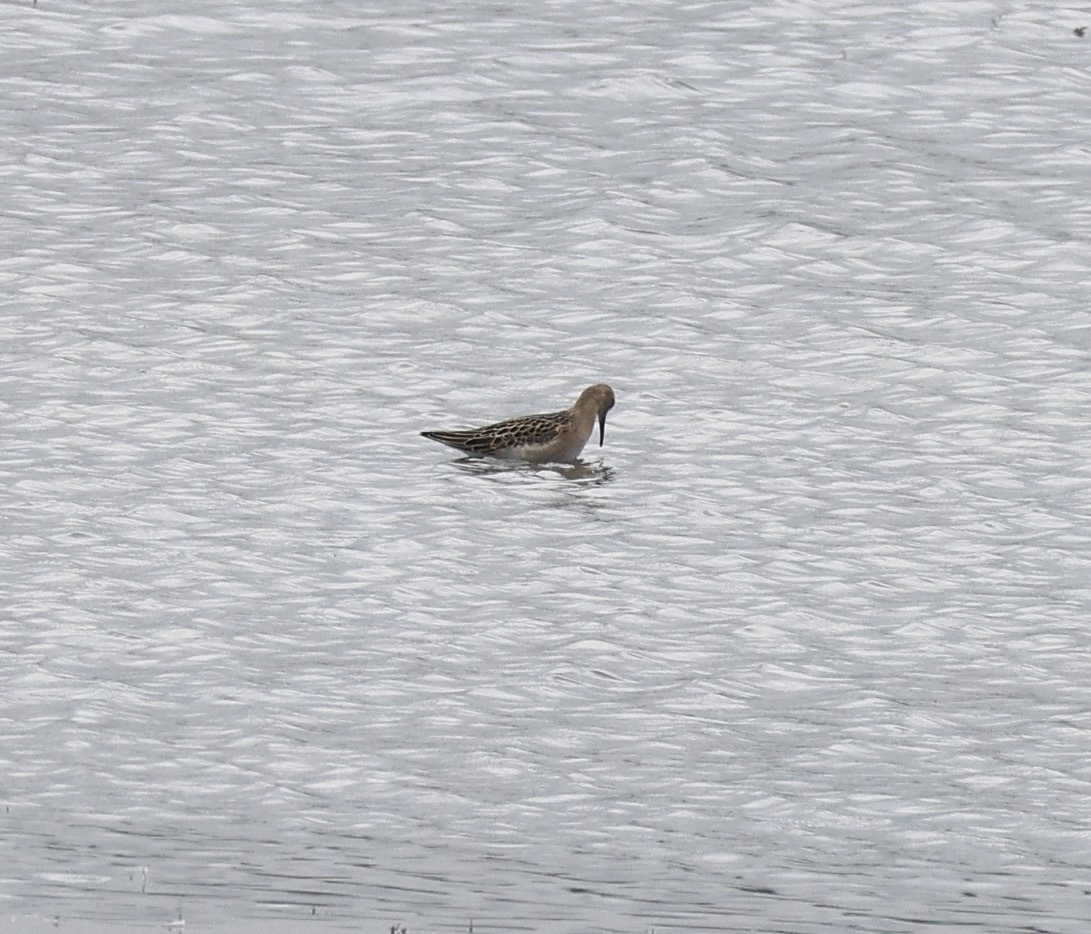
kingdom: Animalia
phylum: Chordata
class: Aves
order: Charadriiformes
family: Scolopacidae
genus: Calidris
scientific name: Calidris pugnax
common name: Ruff
